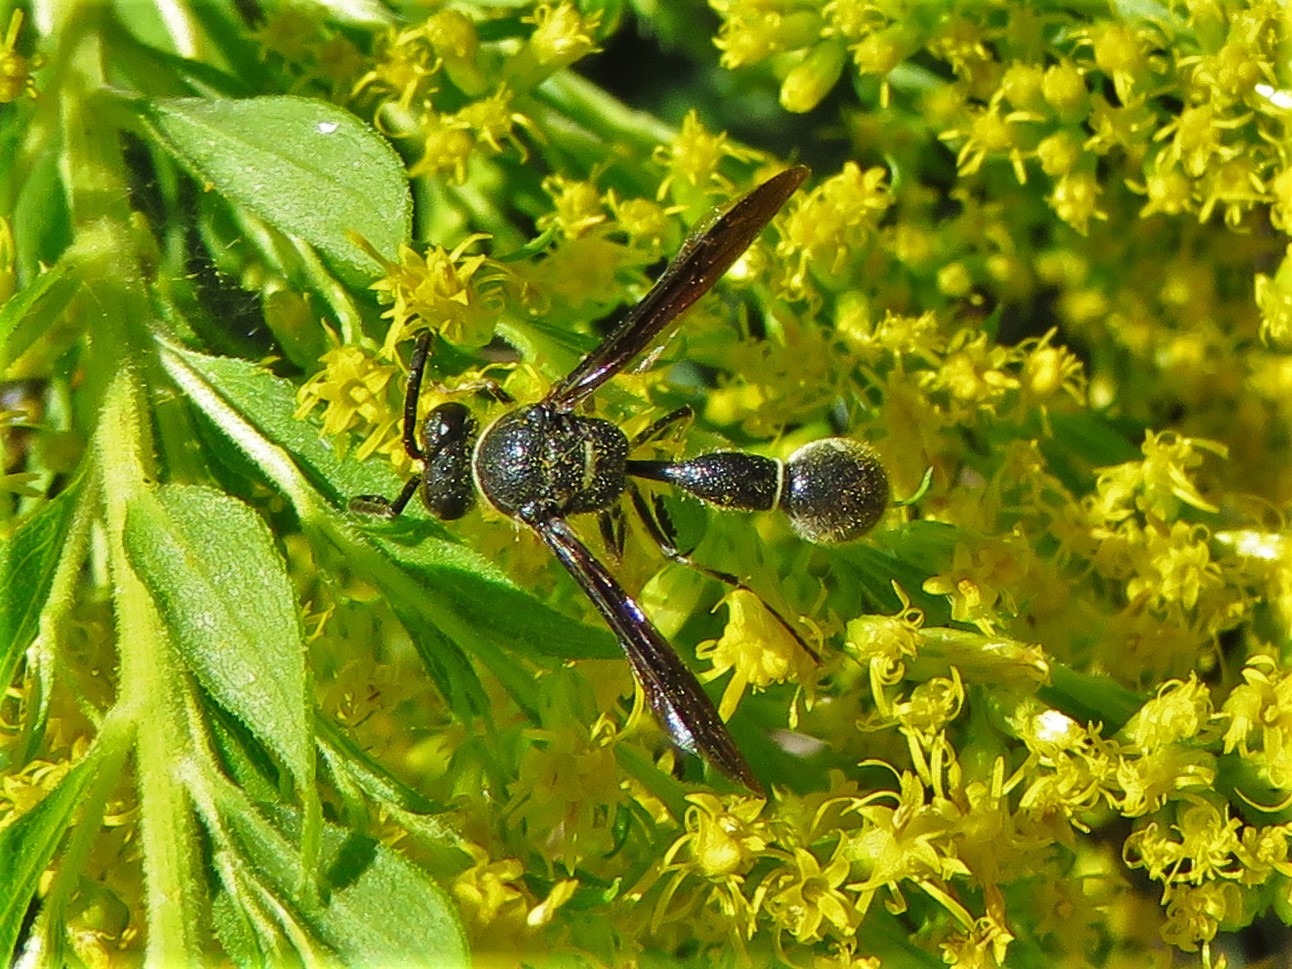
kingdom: Animalia
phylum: Arthropoda
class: Insecta
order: Hymenoptera
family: Vespidae
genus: Eumenes
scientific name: Eumenes fraternus
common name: Fraternal potter wasp
